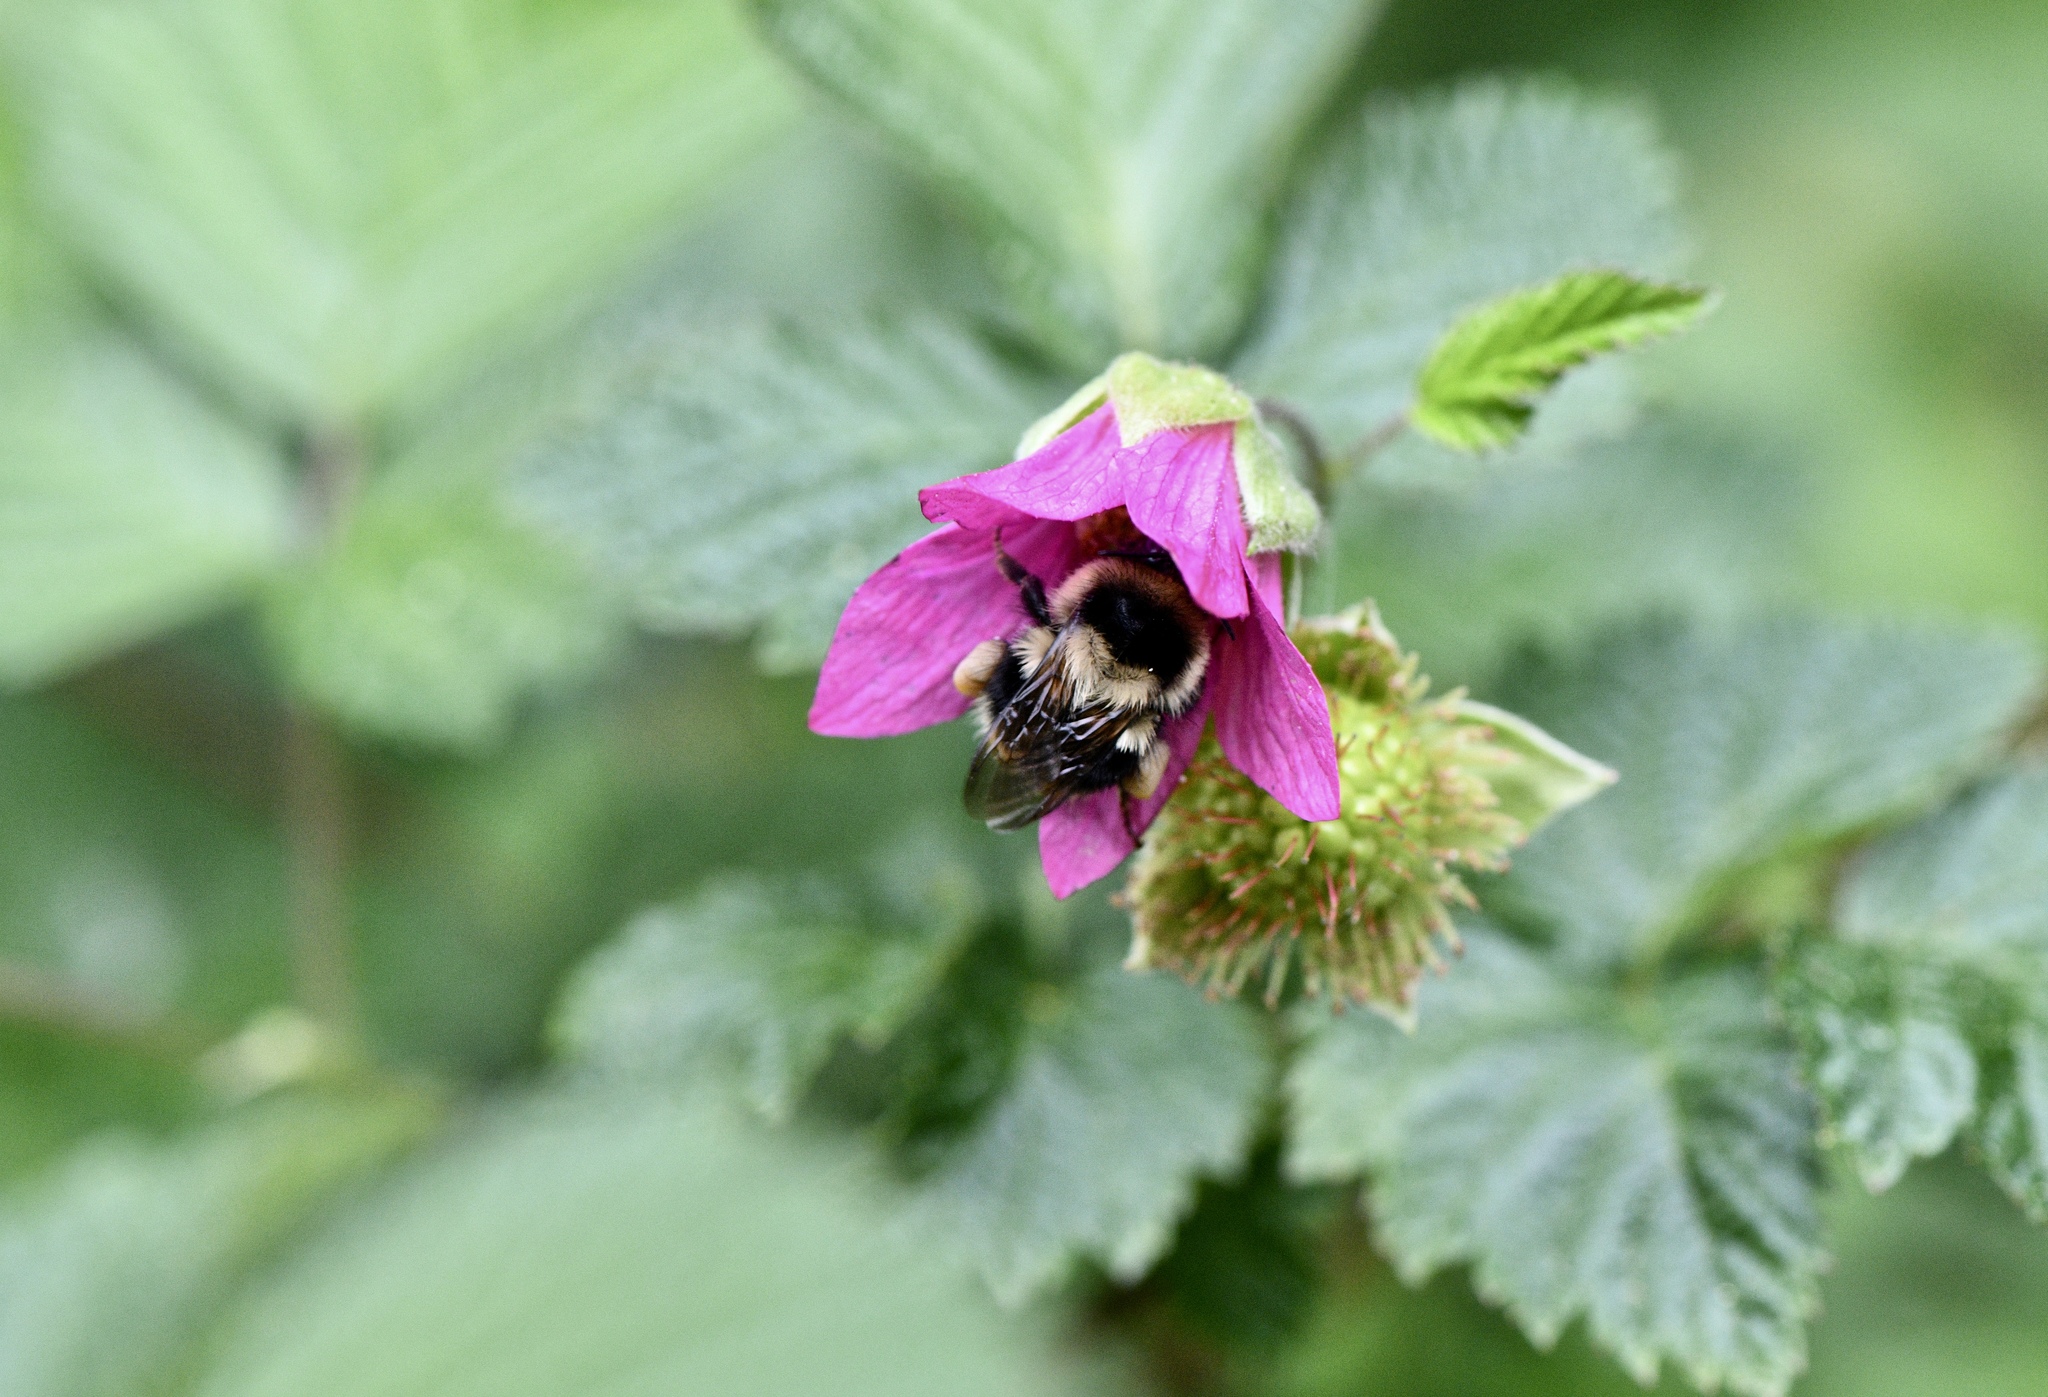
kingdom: Plantae
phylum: Tracheophyta
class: Magnoliopsida
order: Rosales
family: Rosaceae
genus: Rubus
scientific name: Rubus spectabilis
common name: Salmonberry
